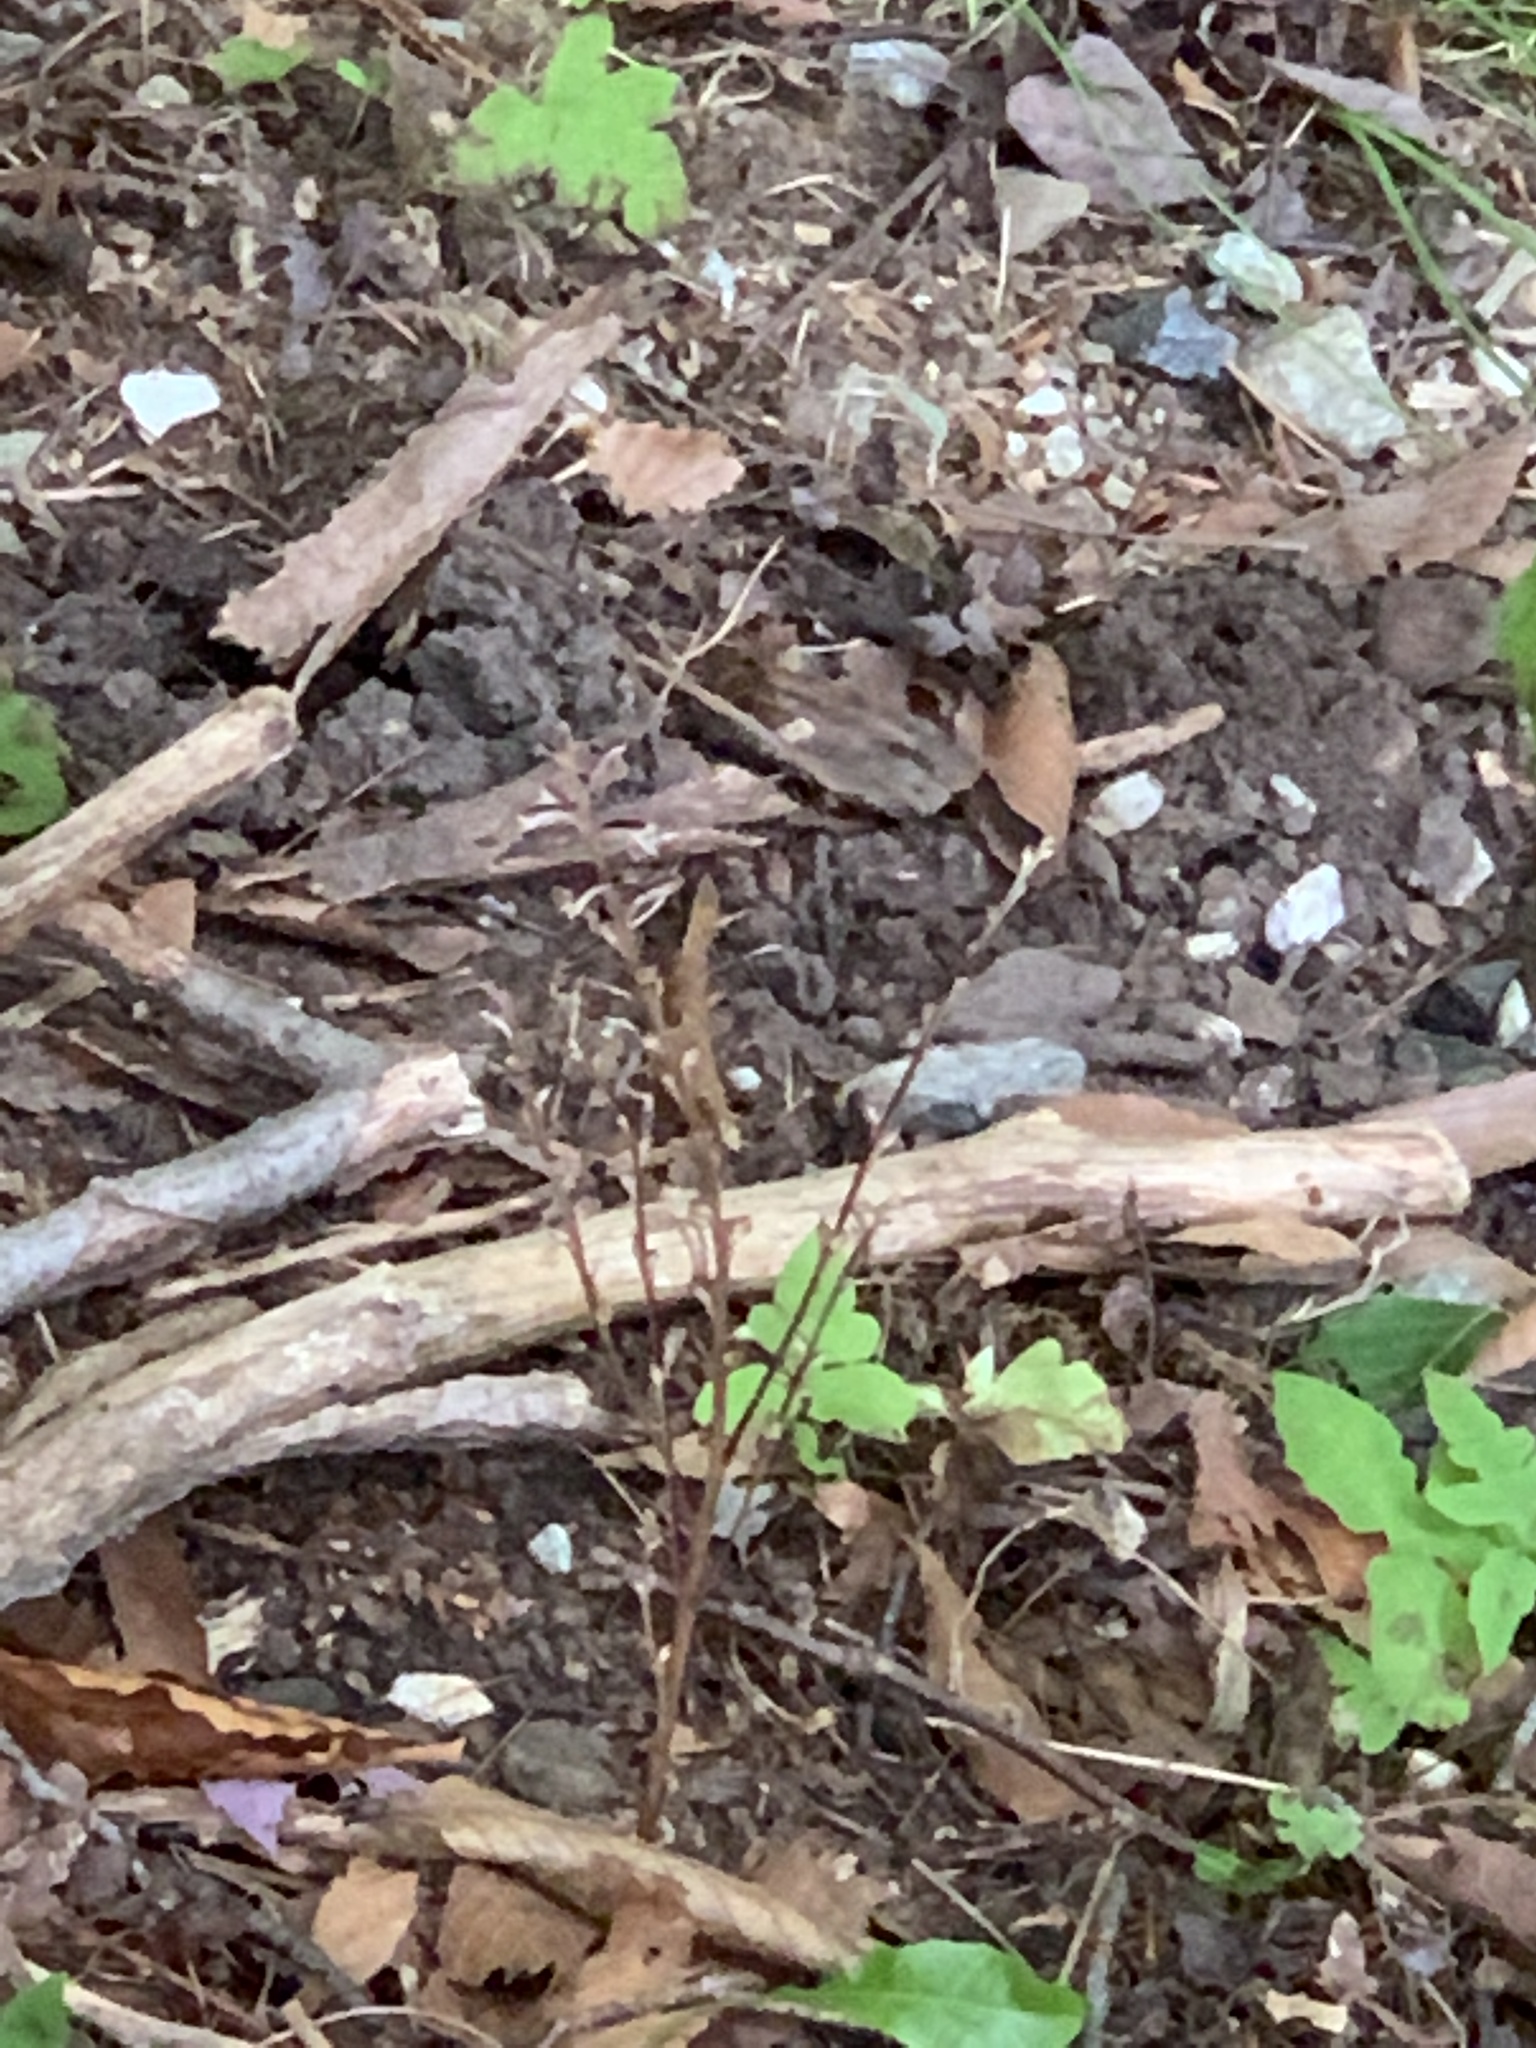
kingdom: Plantae
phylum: Tracheophyta
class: Magnoliopsida
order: Lamiales
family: Orobanchaceae
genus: Epifagus
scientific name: Epifagus virginiana
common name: Beechdrops
